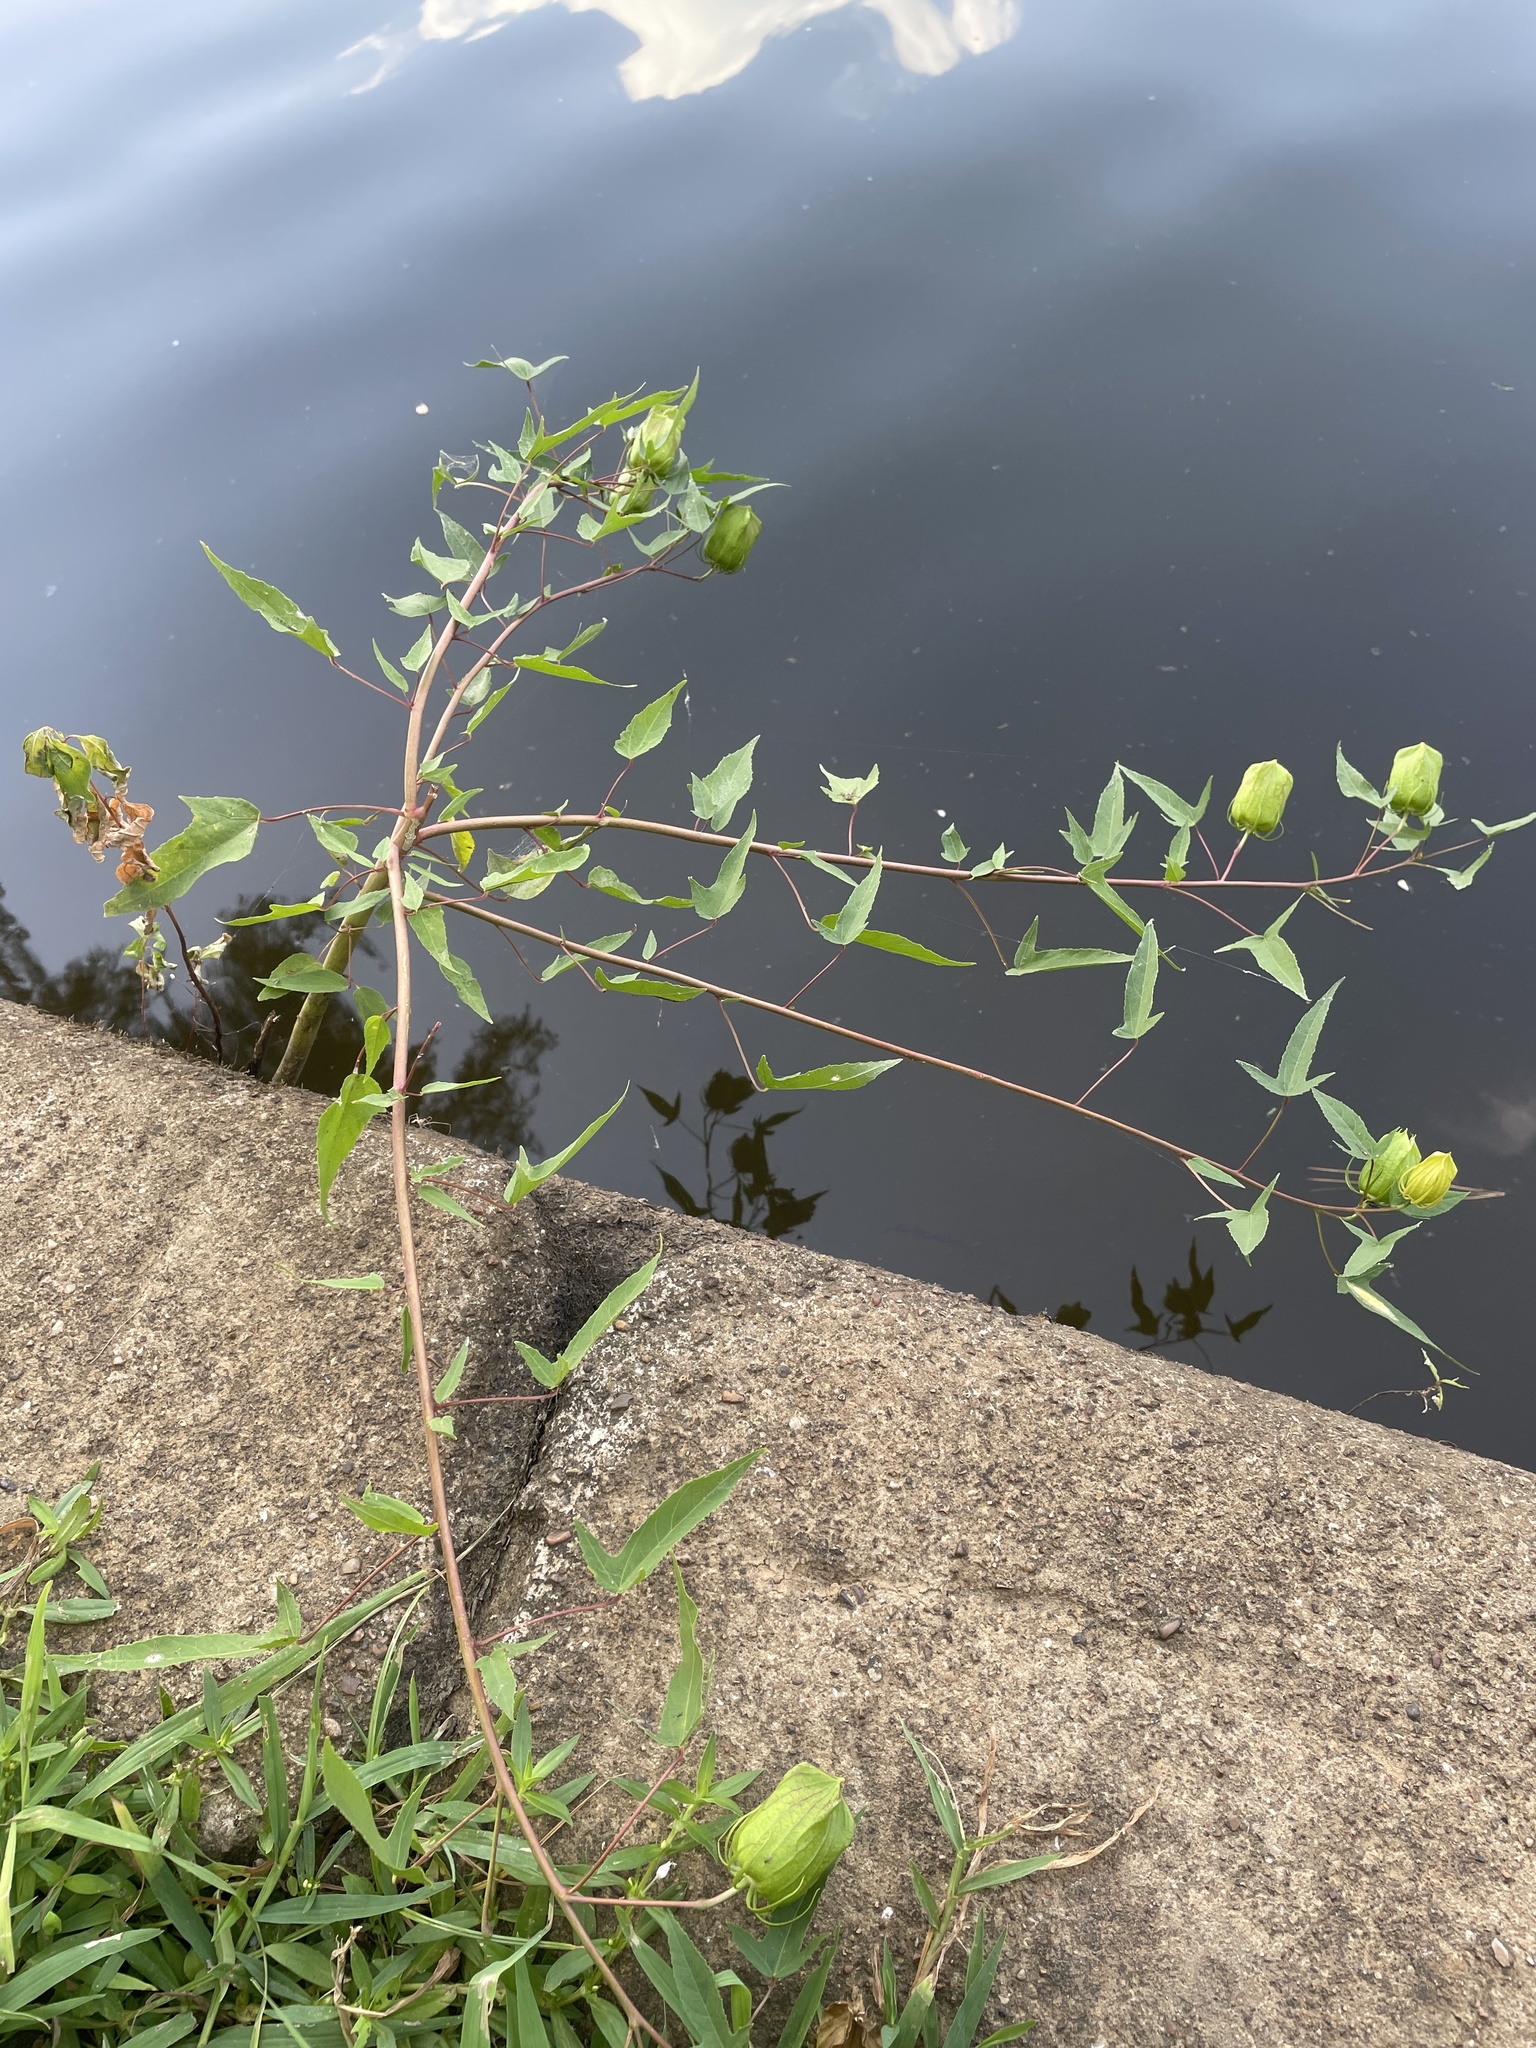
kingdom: Plantae
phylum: Tracheophyta
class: Magnoliopsida
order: Malvales
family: Malvaceae
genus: Hibiscus
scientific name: Hibiscus laevis
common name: Scarlet rose-mallow
